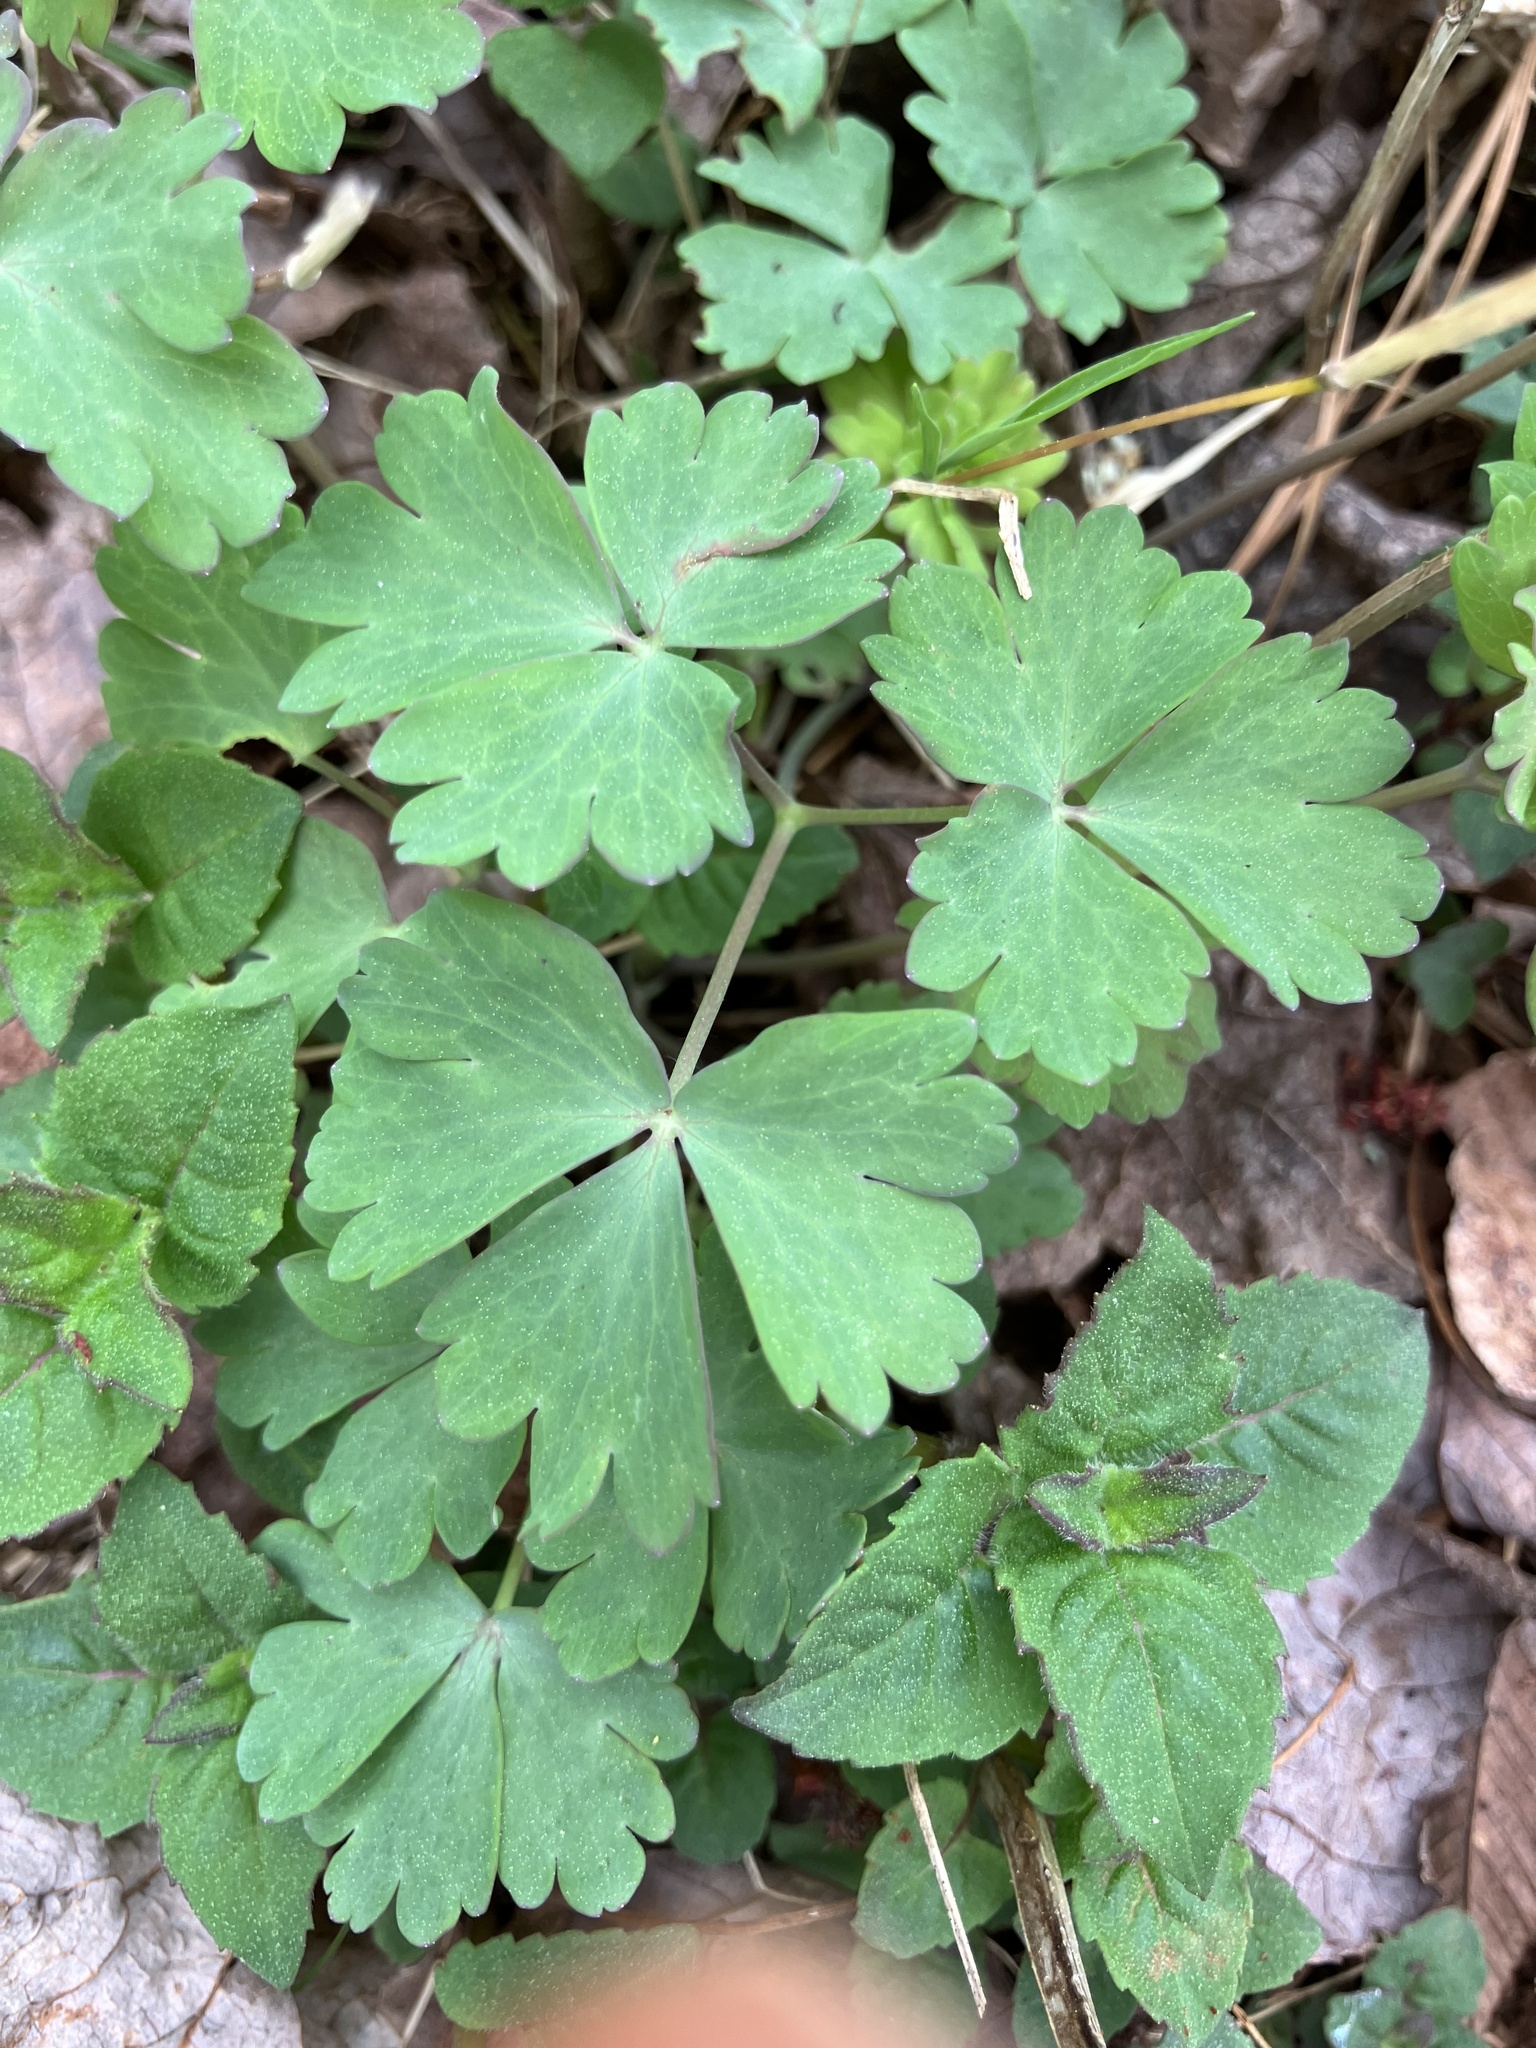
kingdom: Plantae
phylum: Tracheophyta
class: Magnoliopsida
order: Ranunculales
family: Ranunculaceae
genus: Aquilegia
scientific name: Aquilegia canadensis
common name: American columbine
